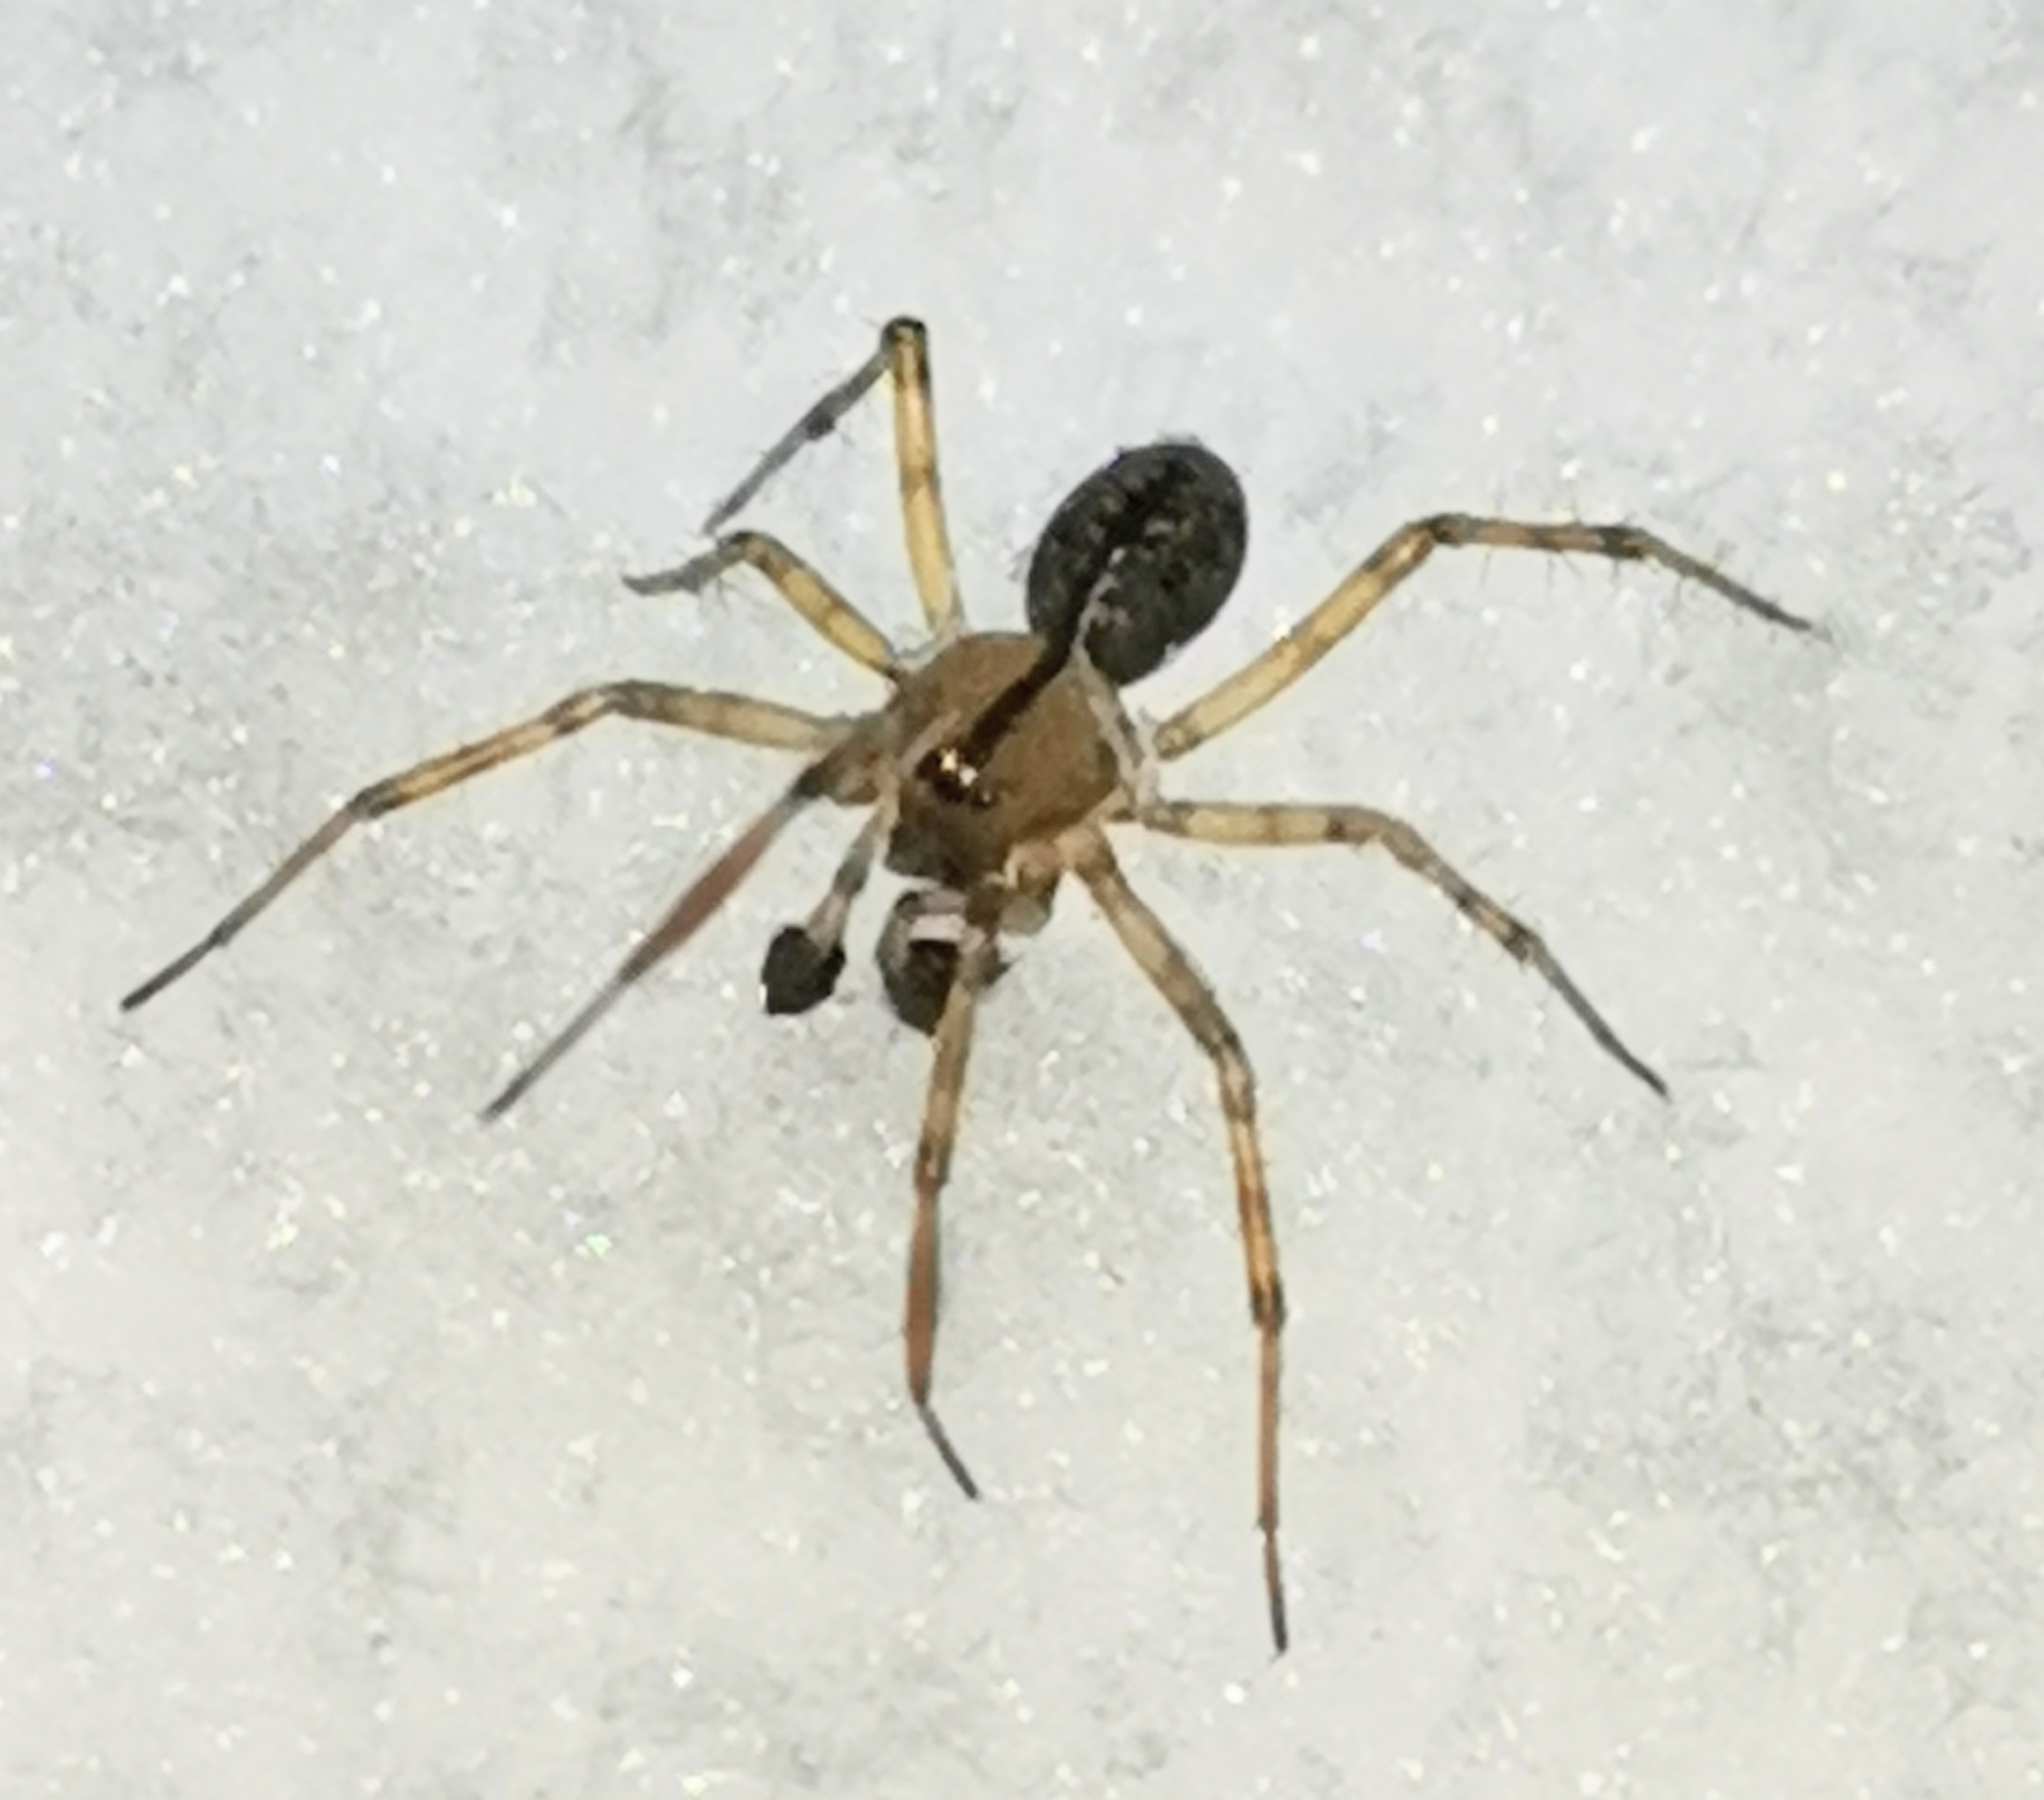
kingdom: Animalia
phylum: Arthropoda
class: Arachnida
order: Araneae
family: Linyphiidae
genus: Stemonyphantes
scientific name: Stemonyphantes lineatus
